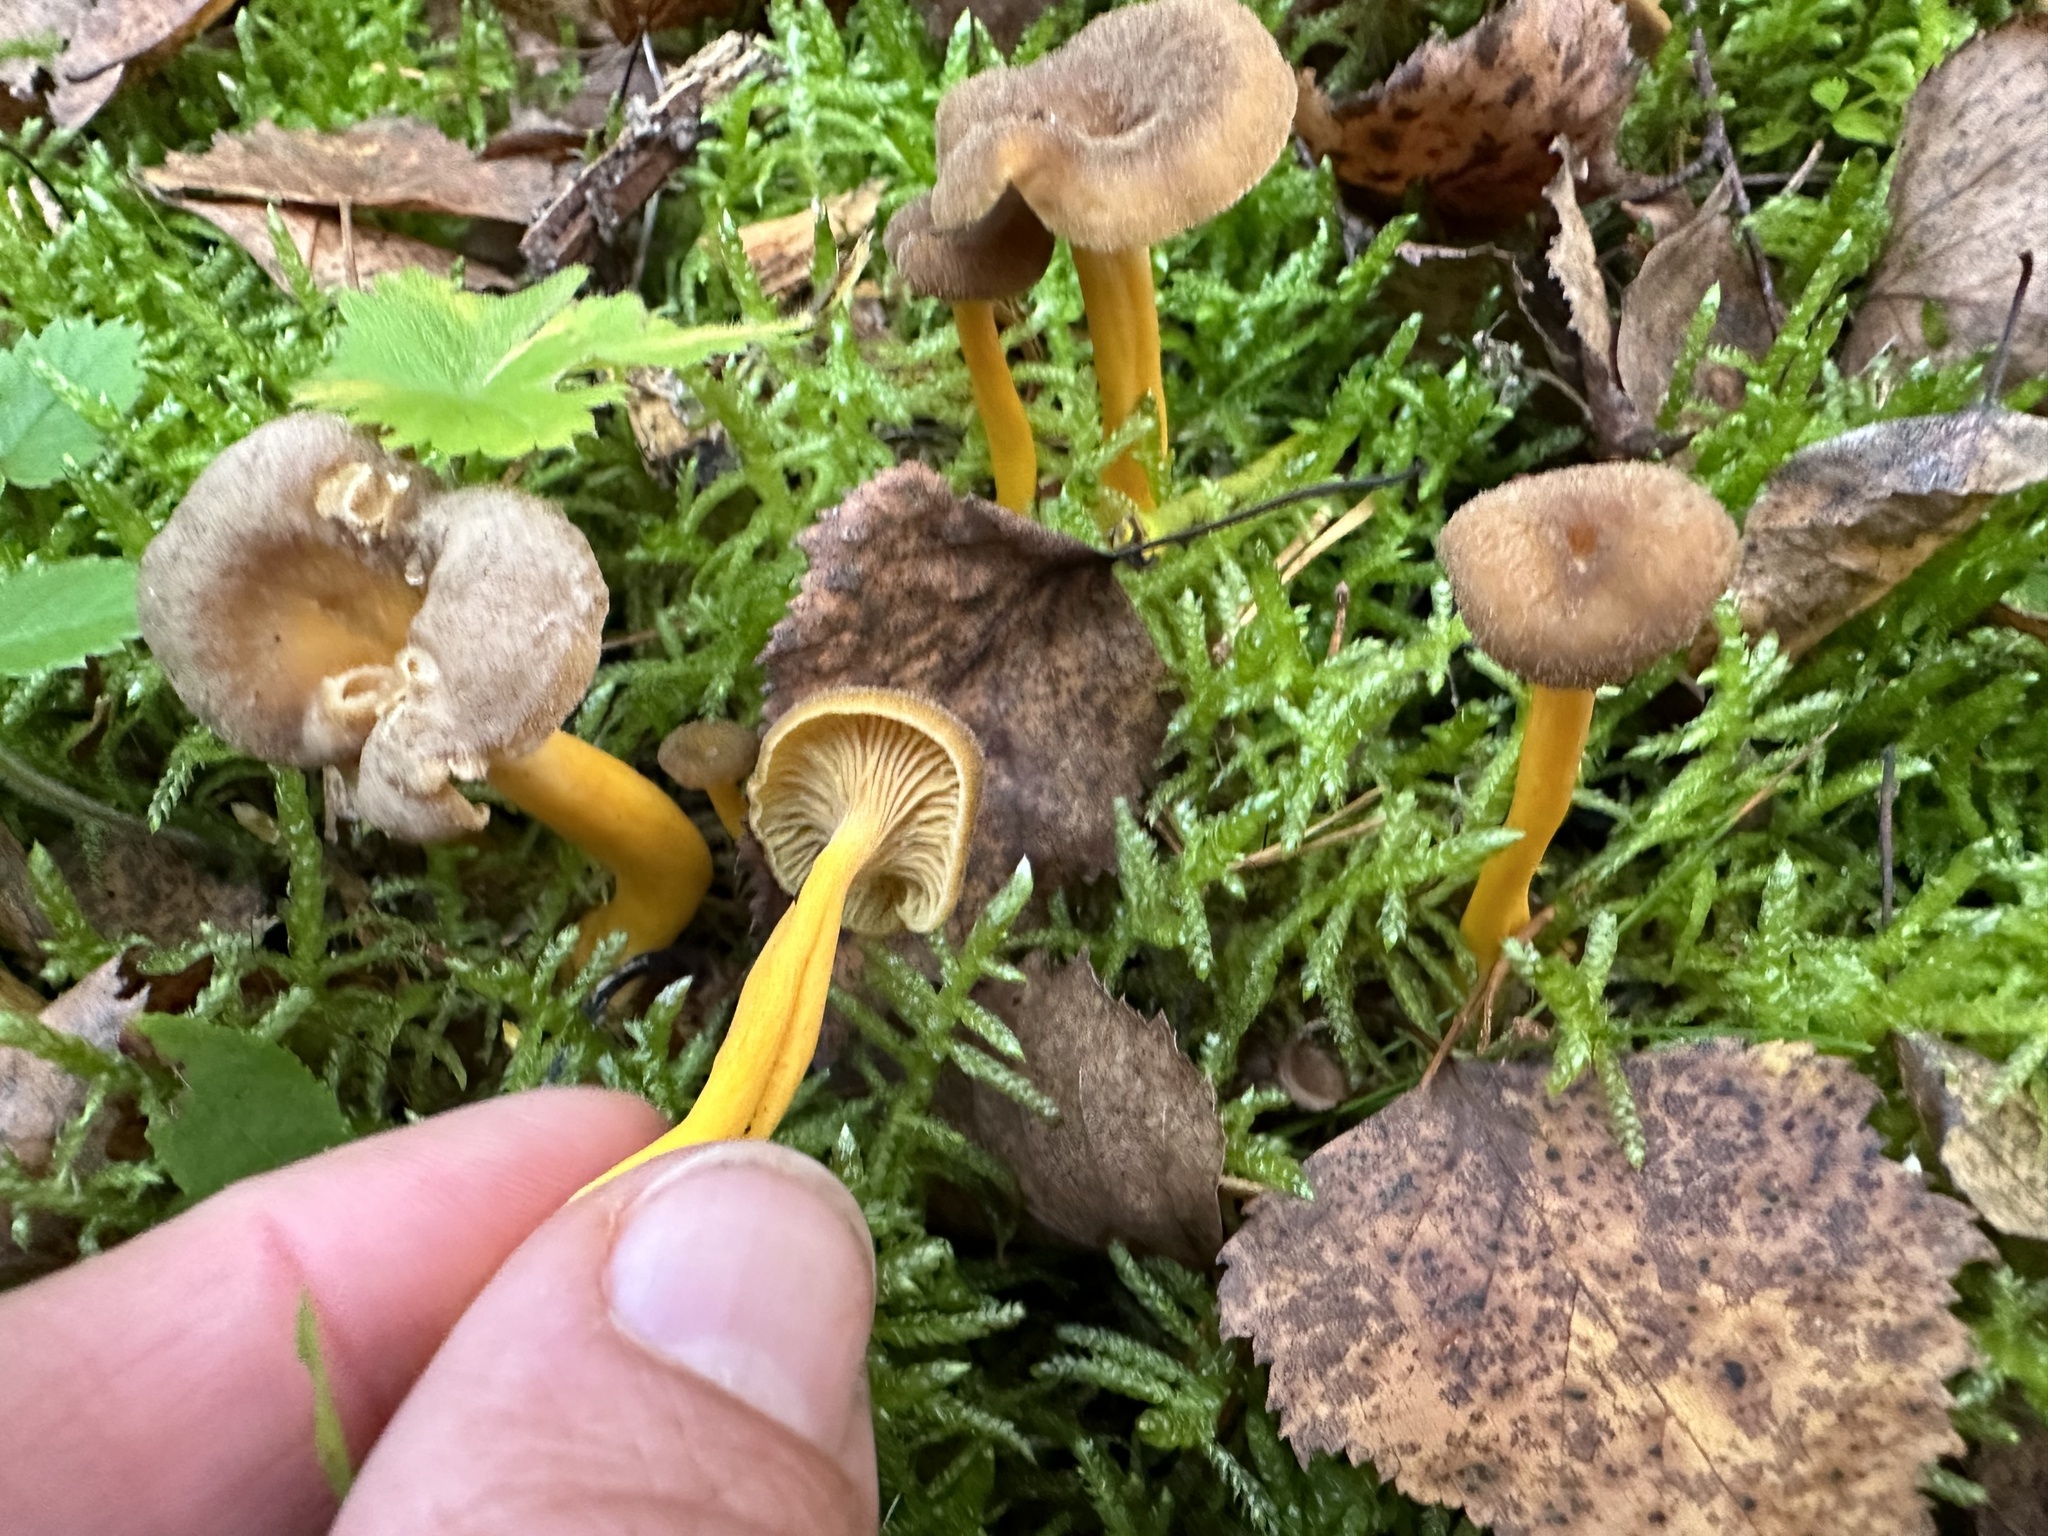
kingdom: Fungi
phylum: Basidiomycota
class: Agaricomycetes
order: Cantharellales
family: Hydnaceae
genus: Craterellus
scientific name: Craterellus tubaeformis
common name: Yellowfoot
